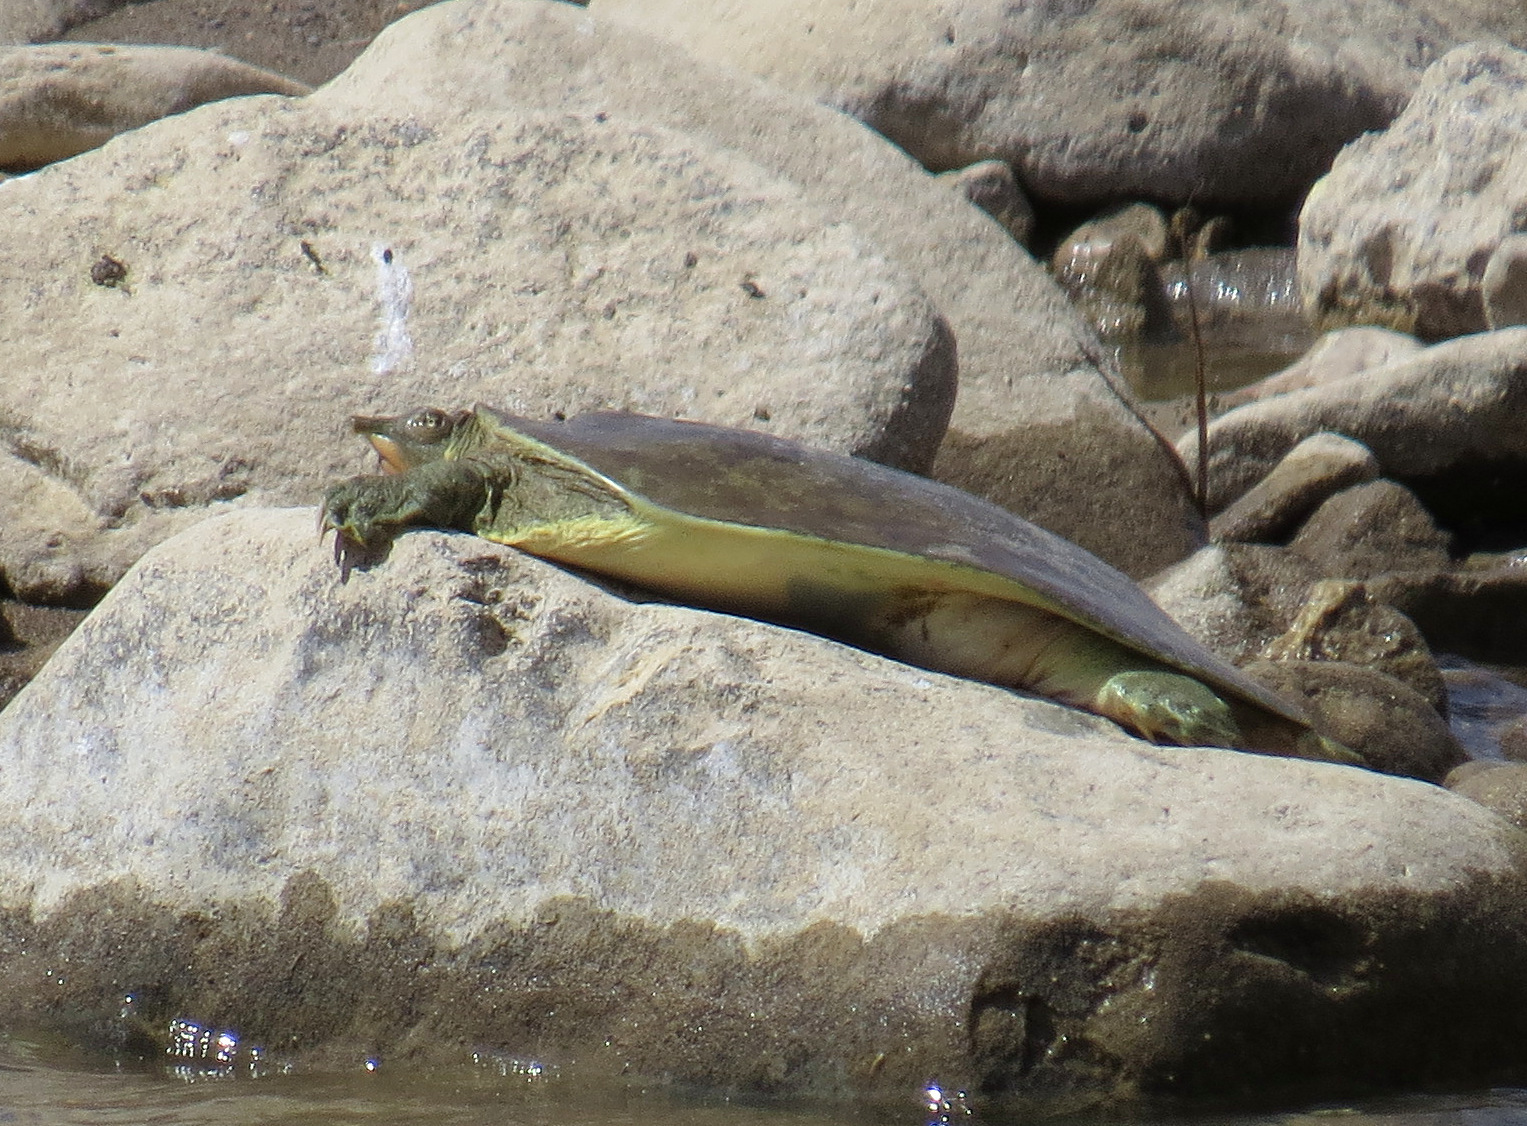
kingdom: Animalia
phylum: Chordata
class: Testudines
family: Trionychidae
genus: Apalone
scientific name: Apalone spinifera
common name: Spiny softshell turtle
